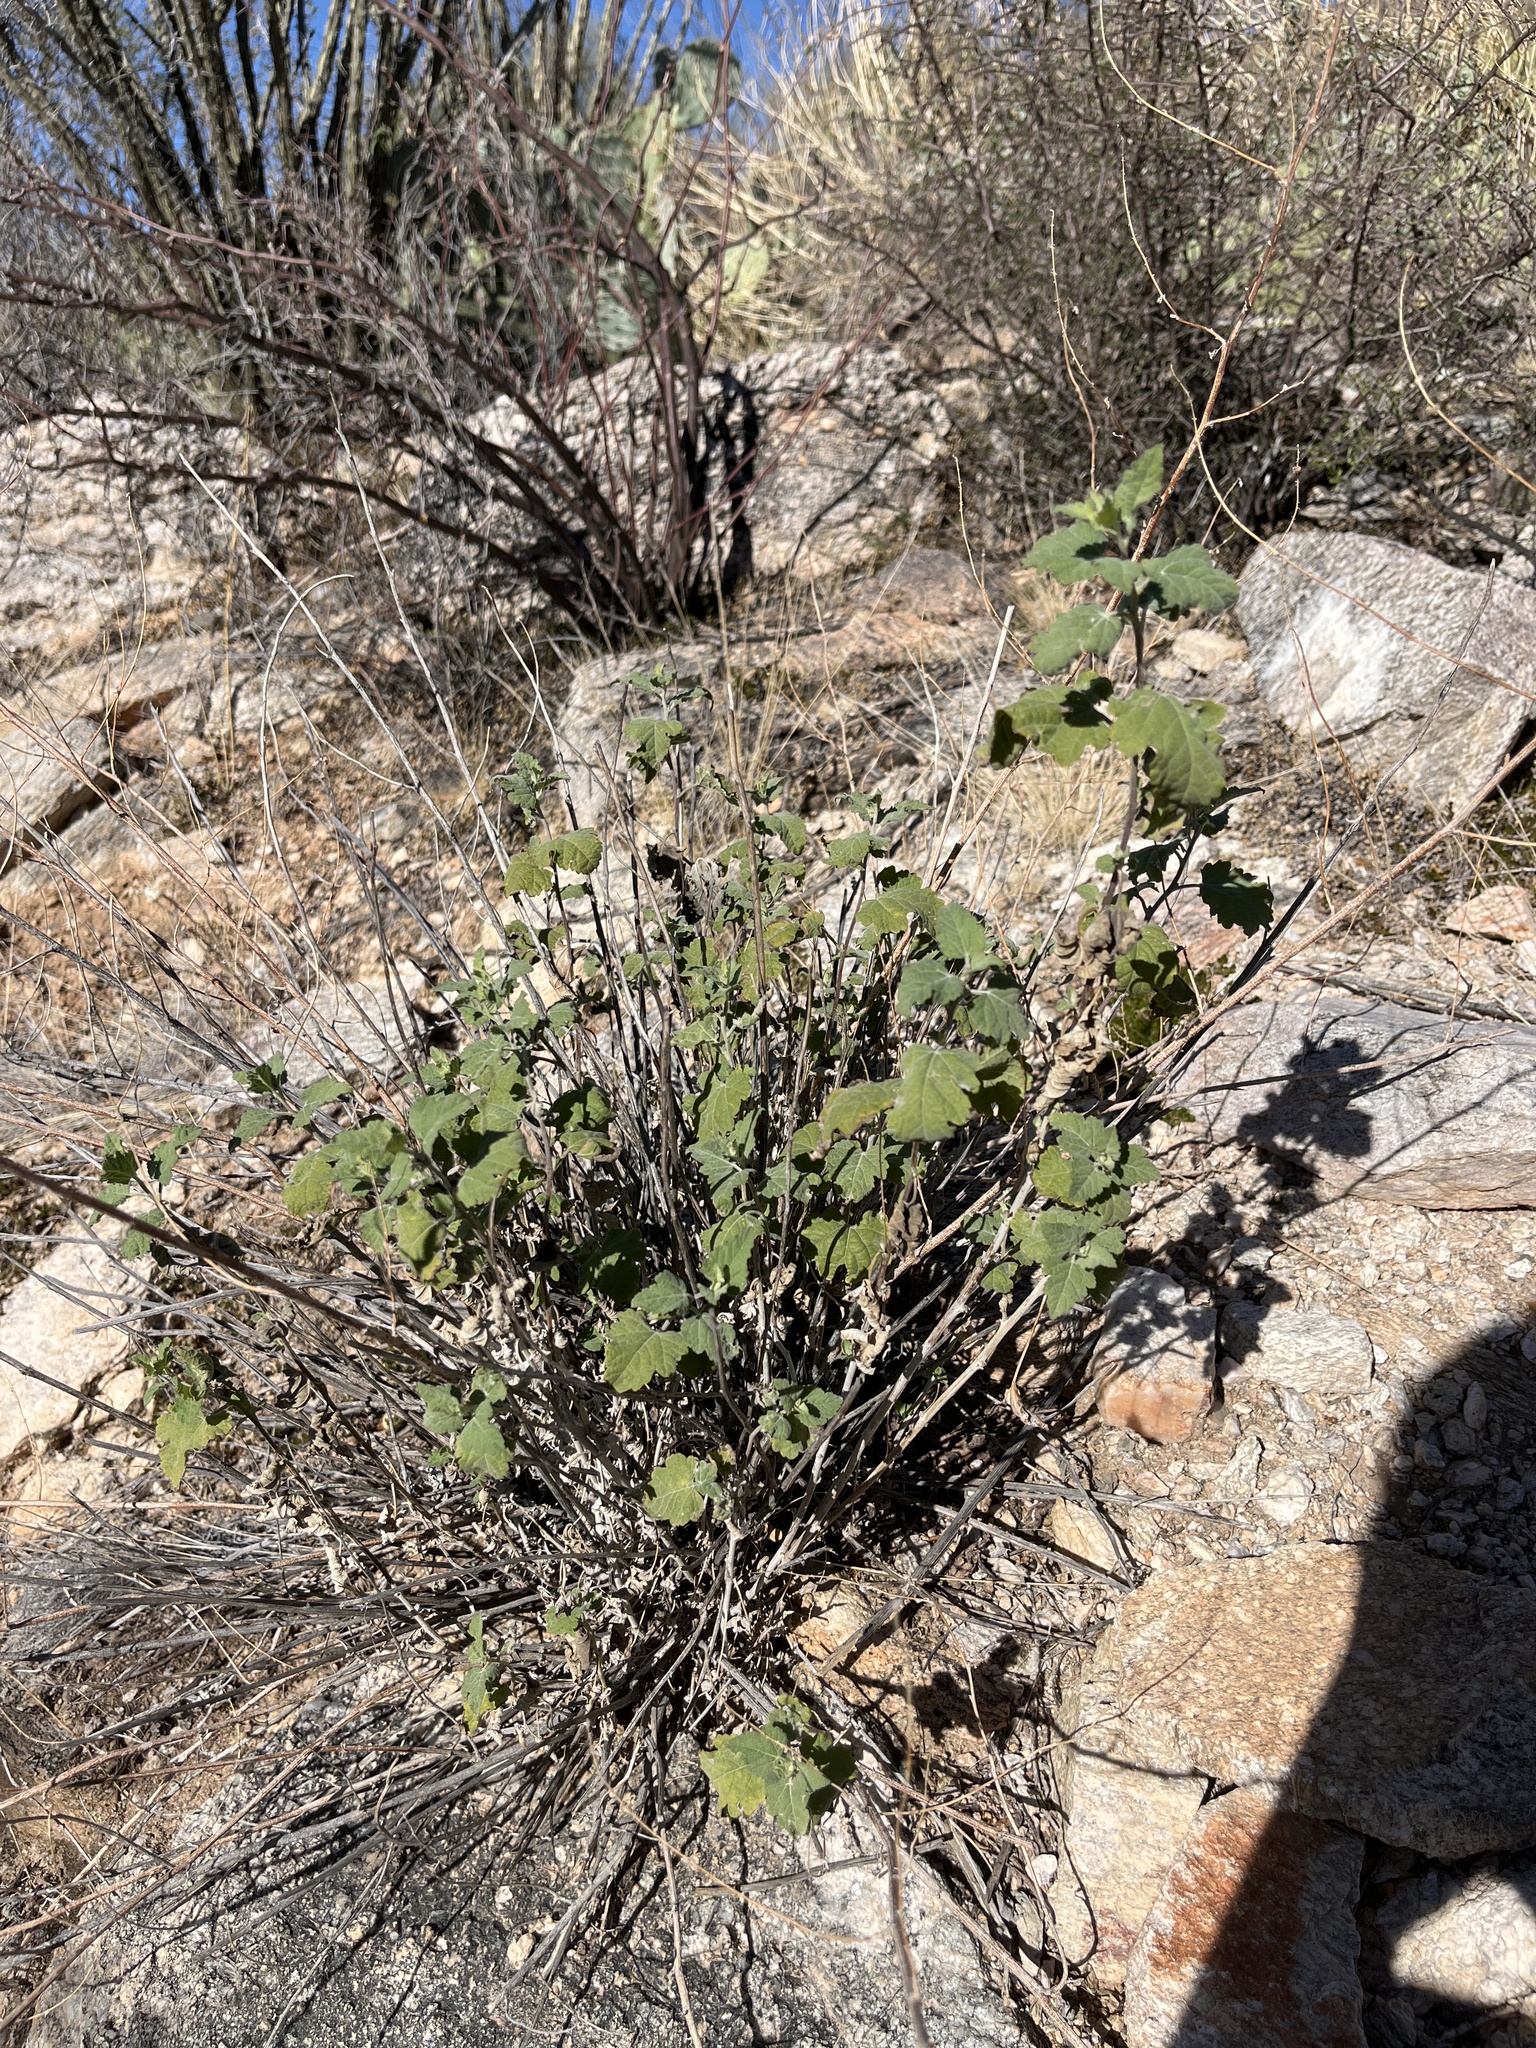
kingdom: Plantae
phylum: Tracheophyta
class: Magnoliopsida
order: Asterales
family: Asteraceae
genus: Ambrosia
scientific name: Ambrosia cordifolia
